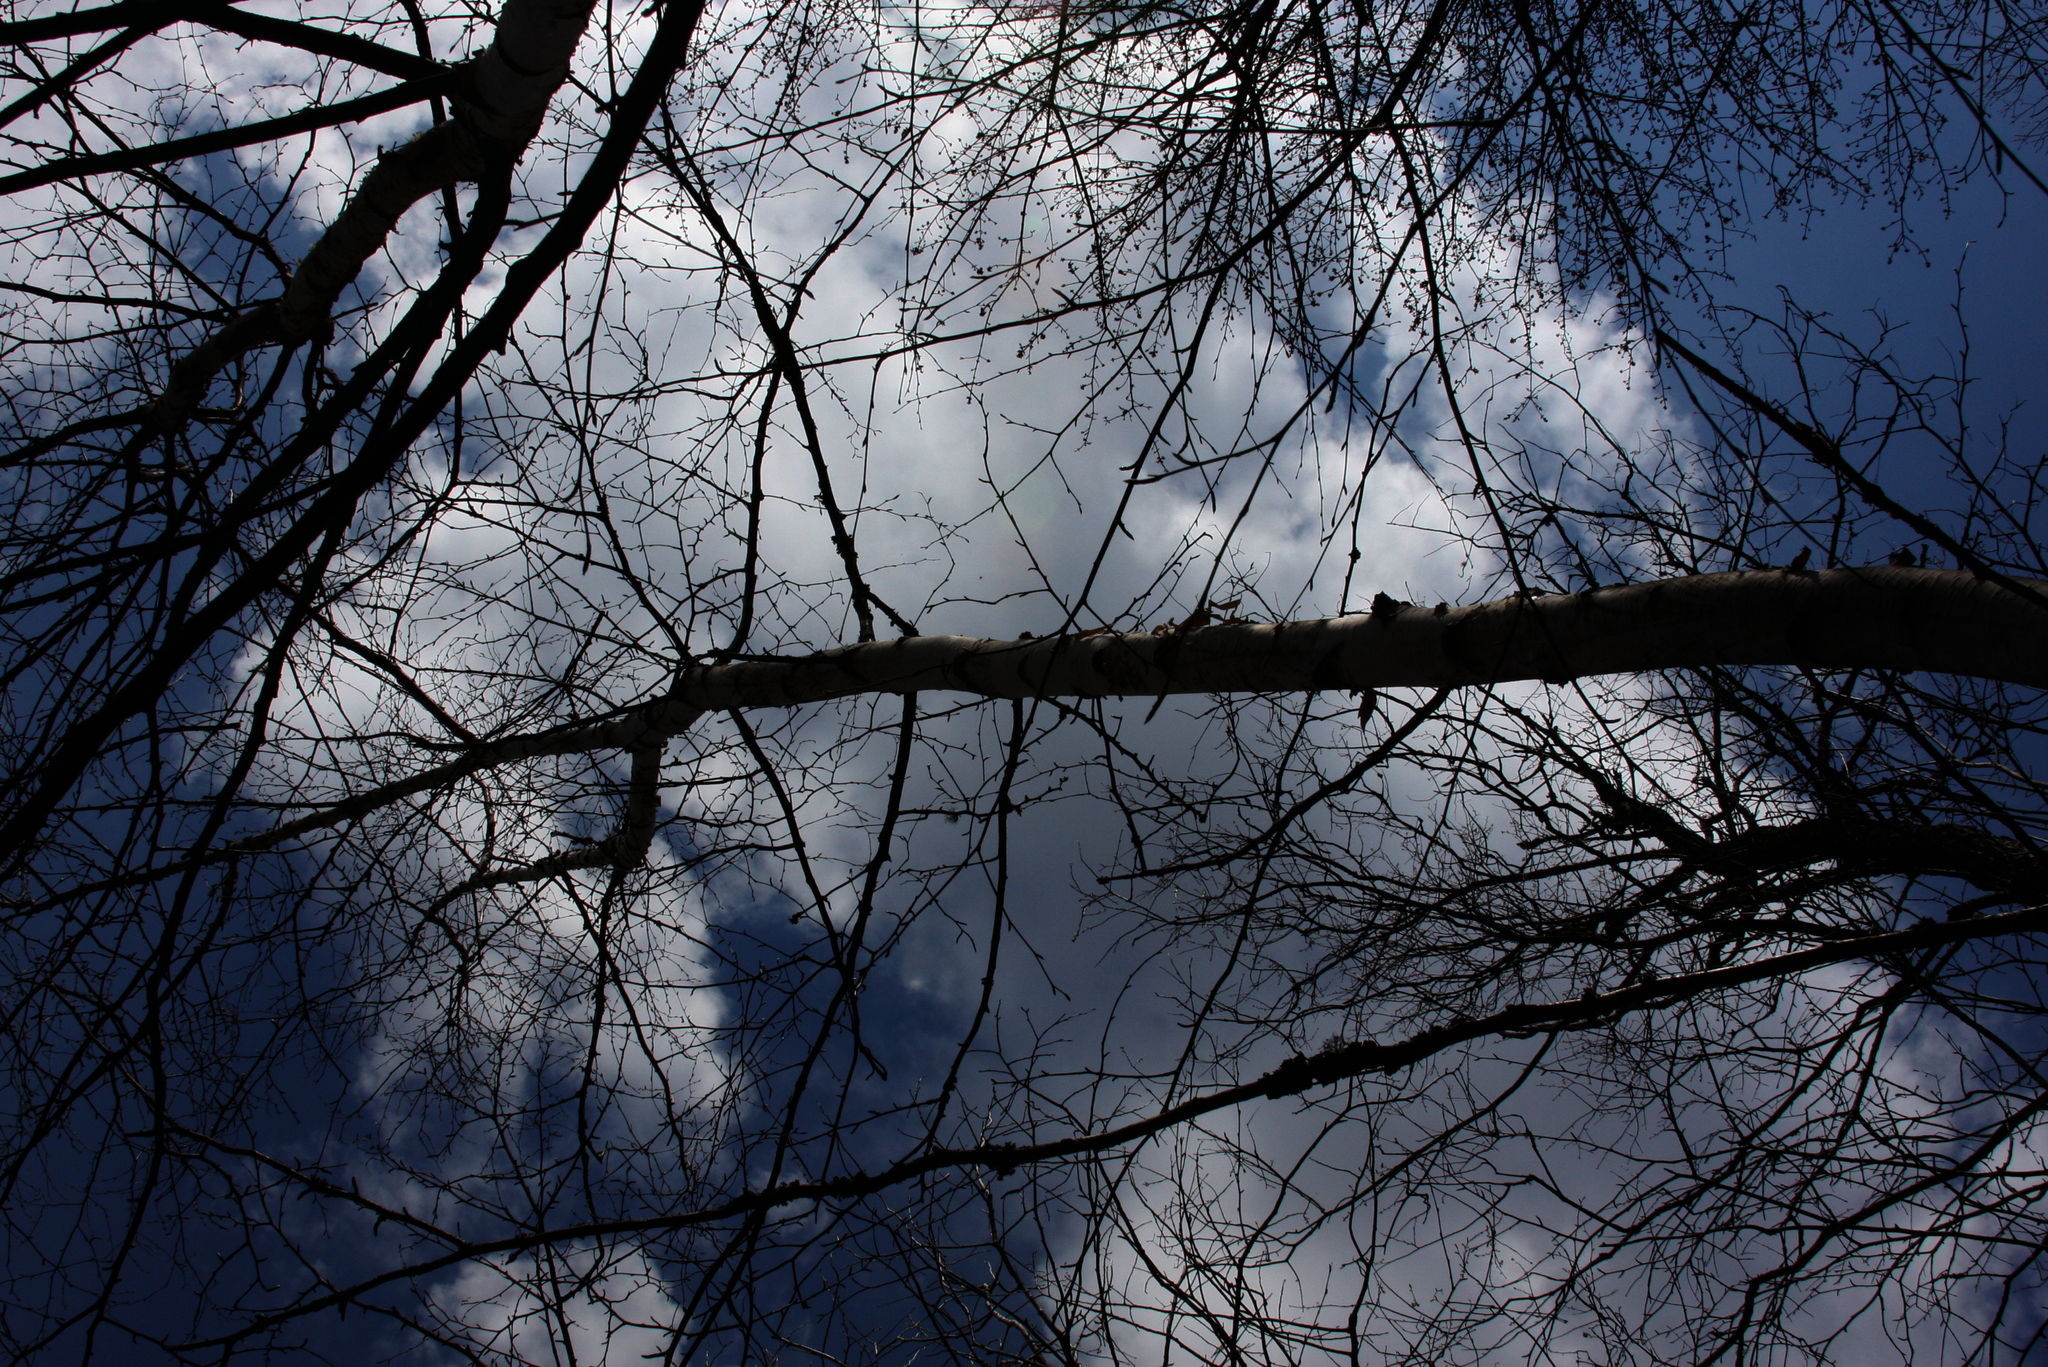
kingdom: Plantae
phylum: Tracheophyta
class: Magnoliopsida
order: Fagales
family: Betulaceae
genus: Betula
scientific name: Betula papyrifera
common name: Paper birch
